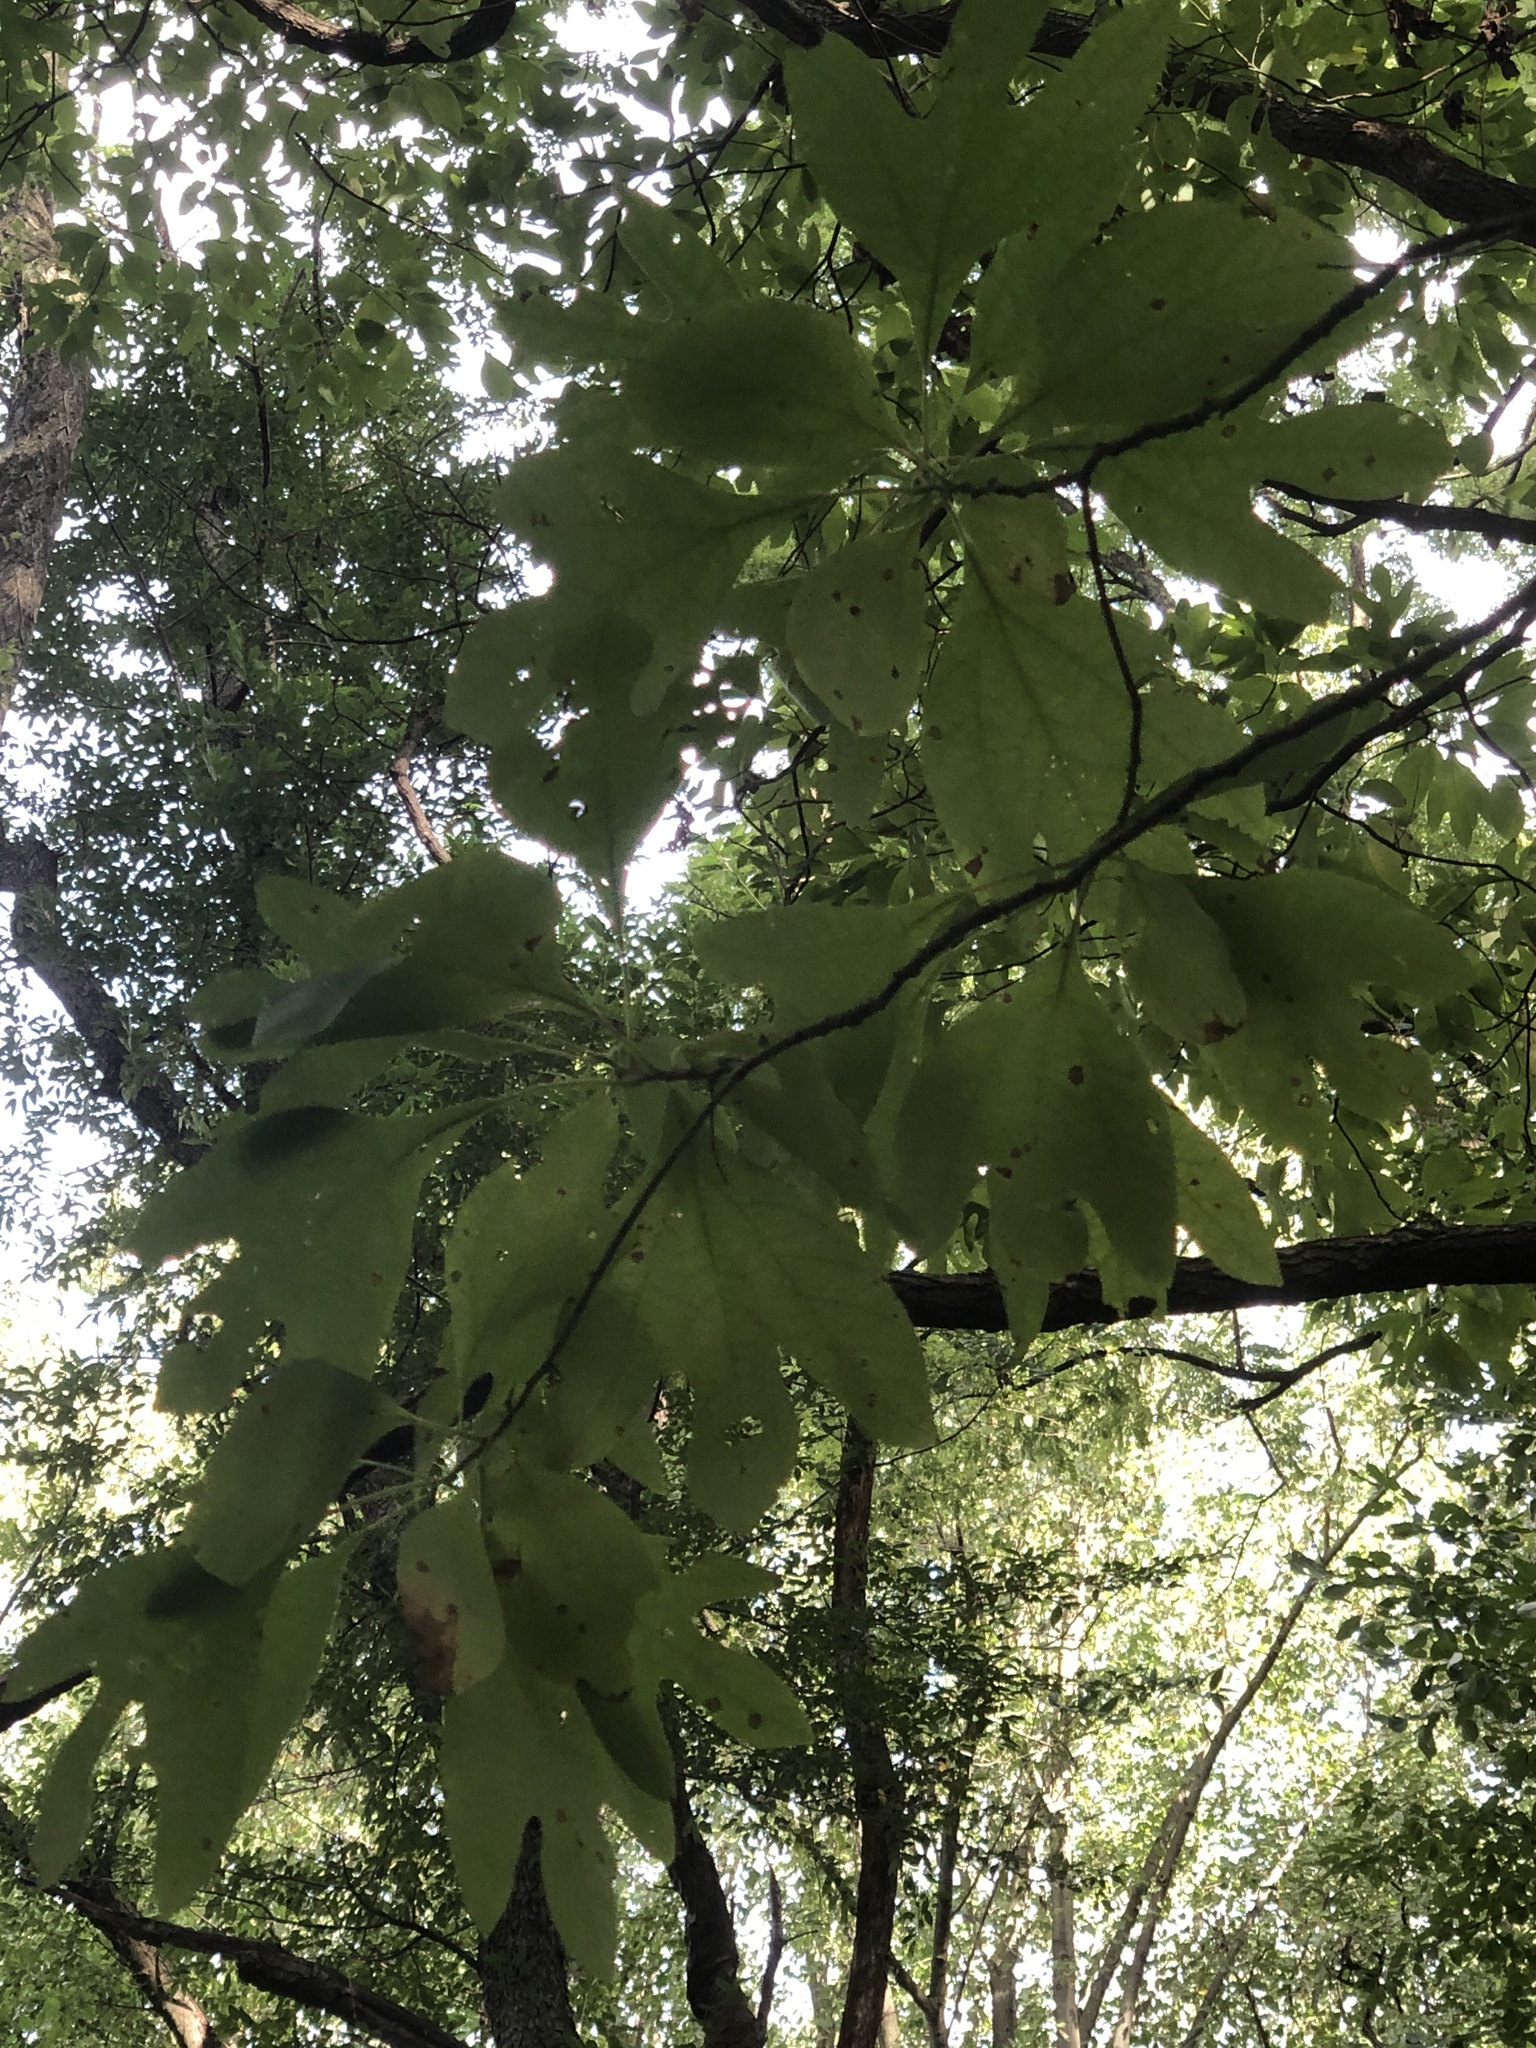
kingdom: Plantae
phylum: Tracheophyta
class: Magnoliopsida
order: Laurales
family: Lauraceae
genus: Sassafras
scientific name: Sassafras albidum
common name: Sassafras
